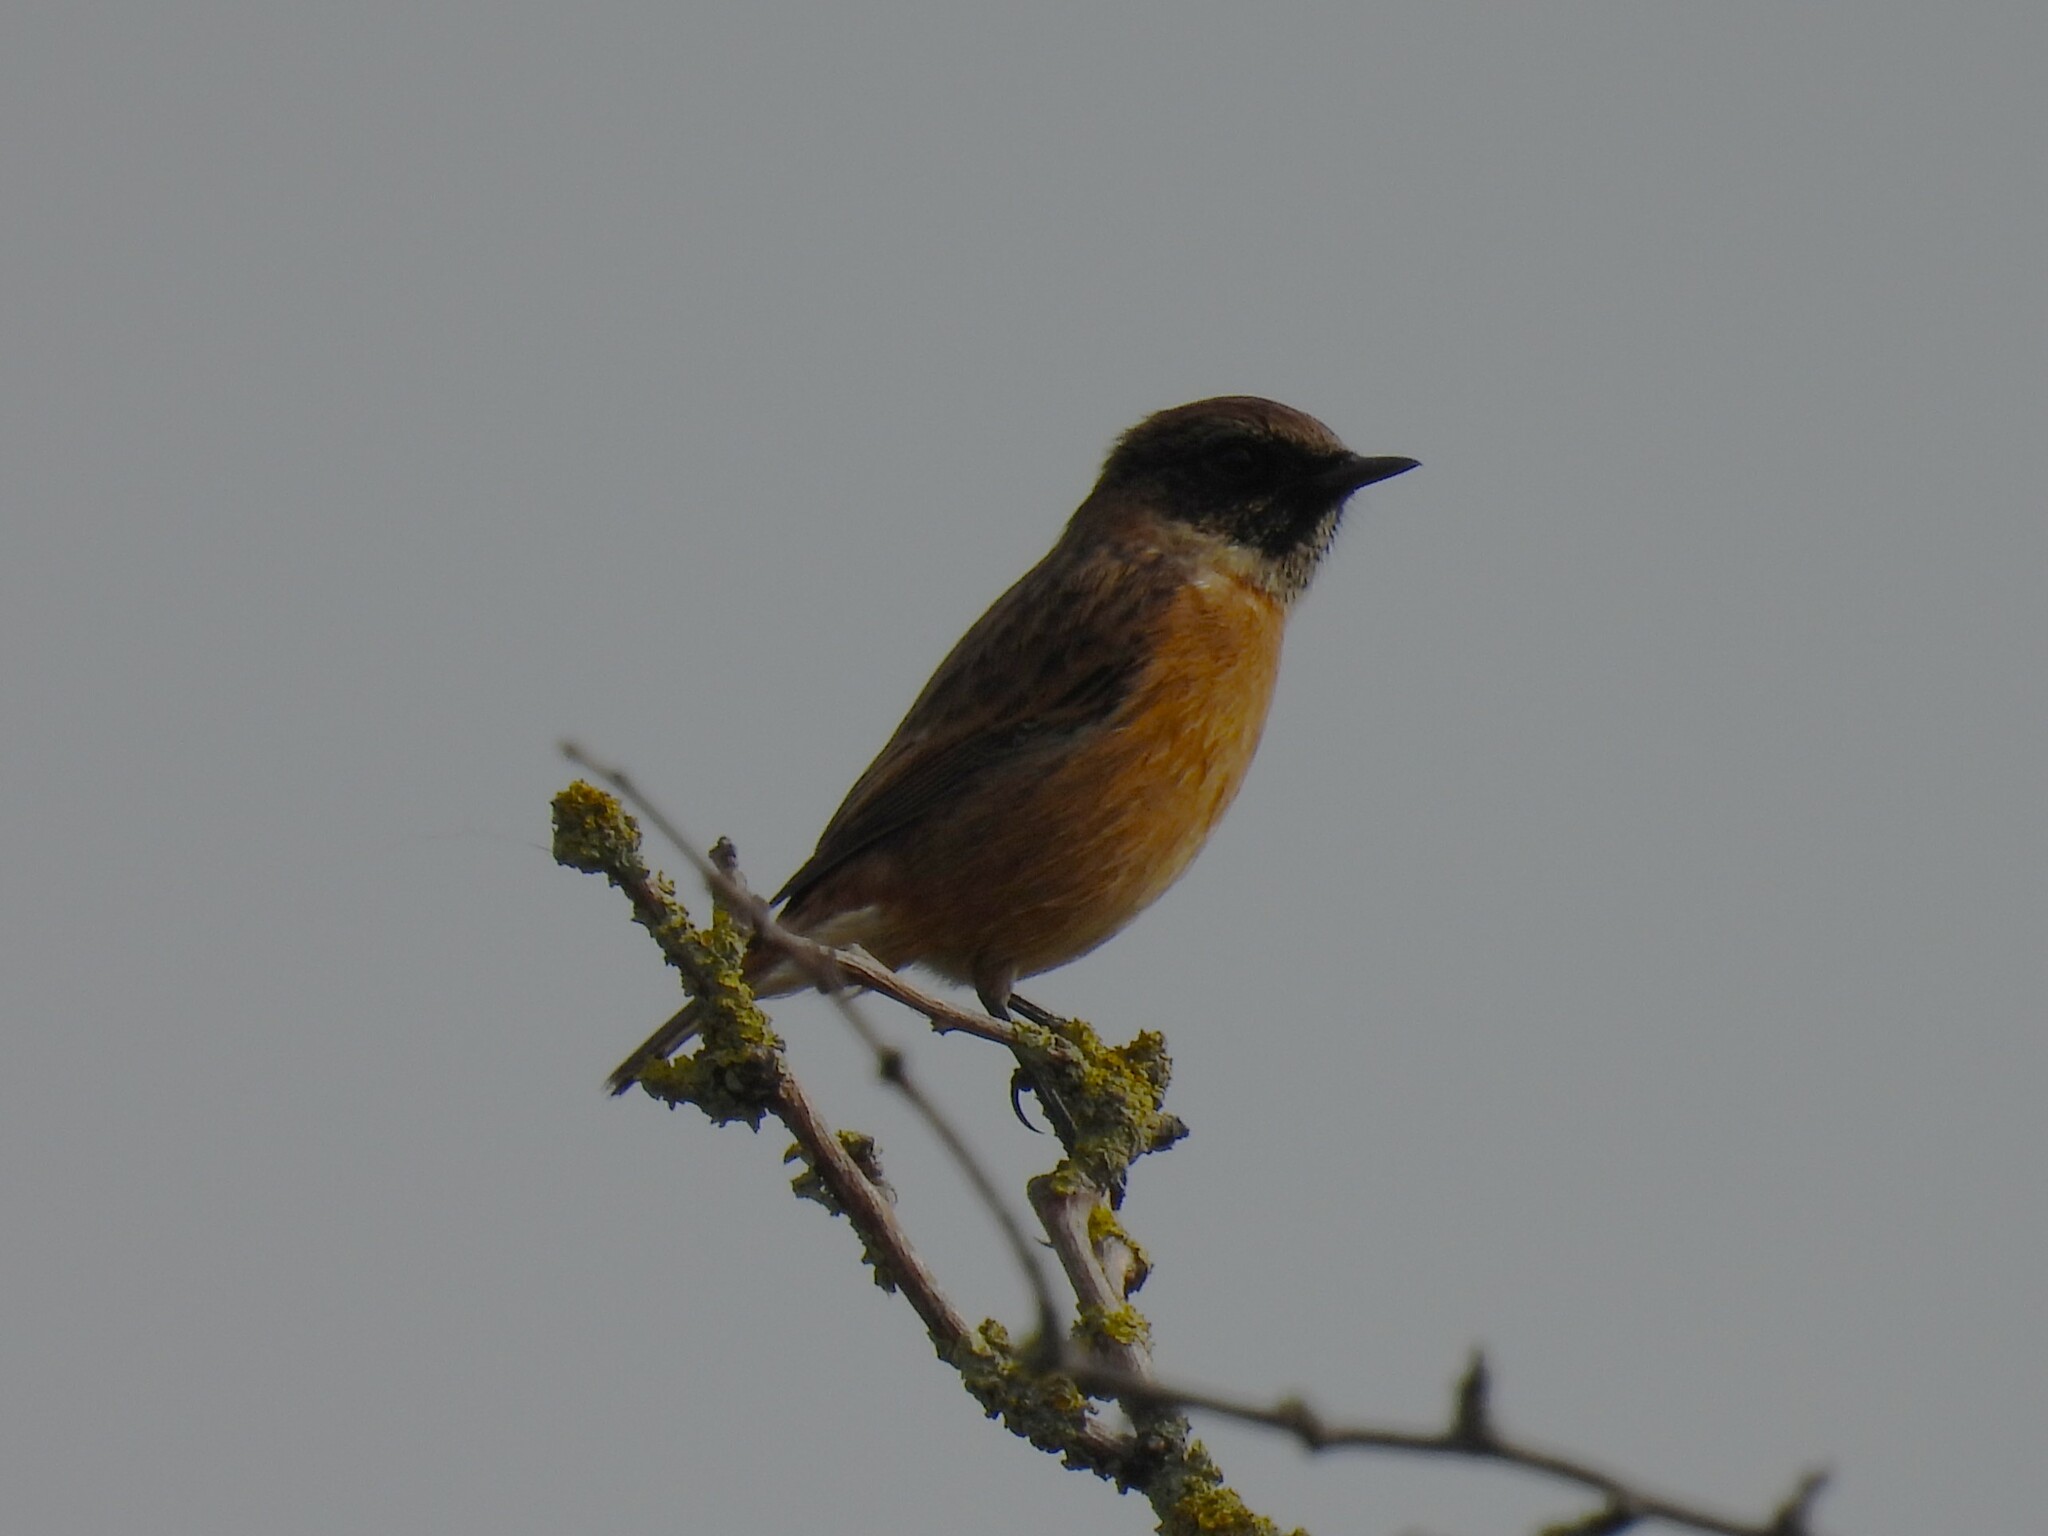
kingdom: Animalia
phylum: Chordata
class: Aves
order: Passeriformes
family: Muscicapidae
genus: Saxicola
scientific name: Saxicola rubicola
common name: European stonechat
